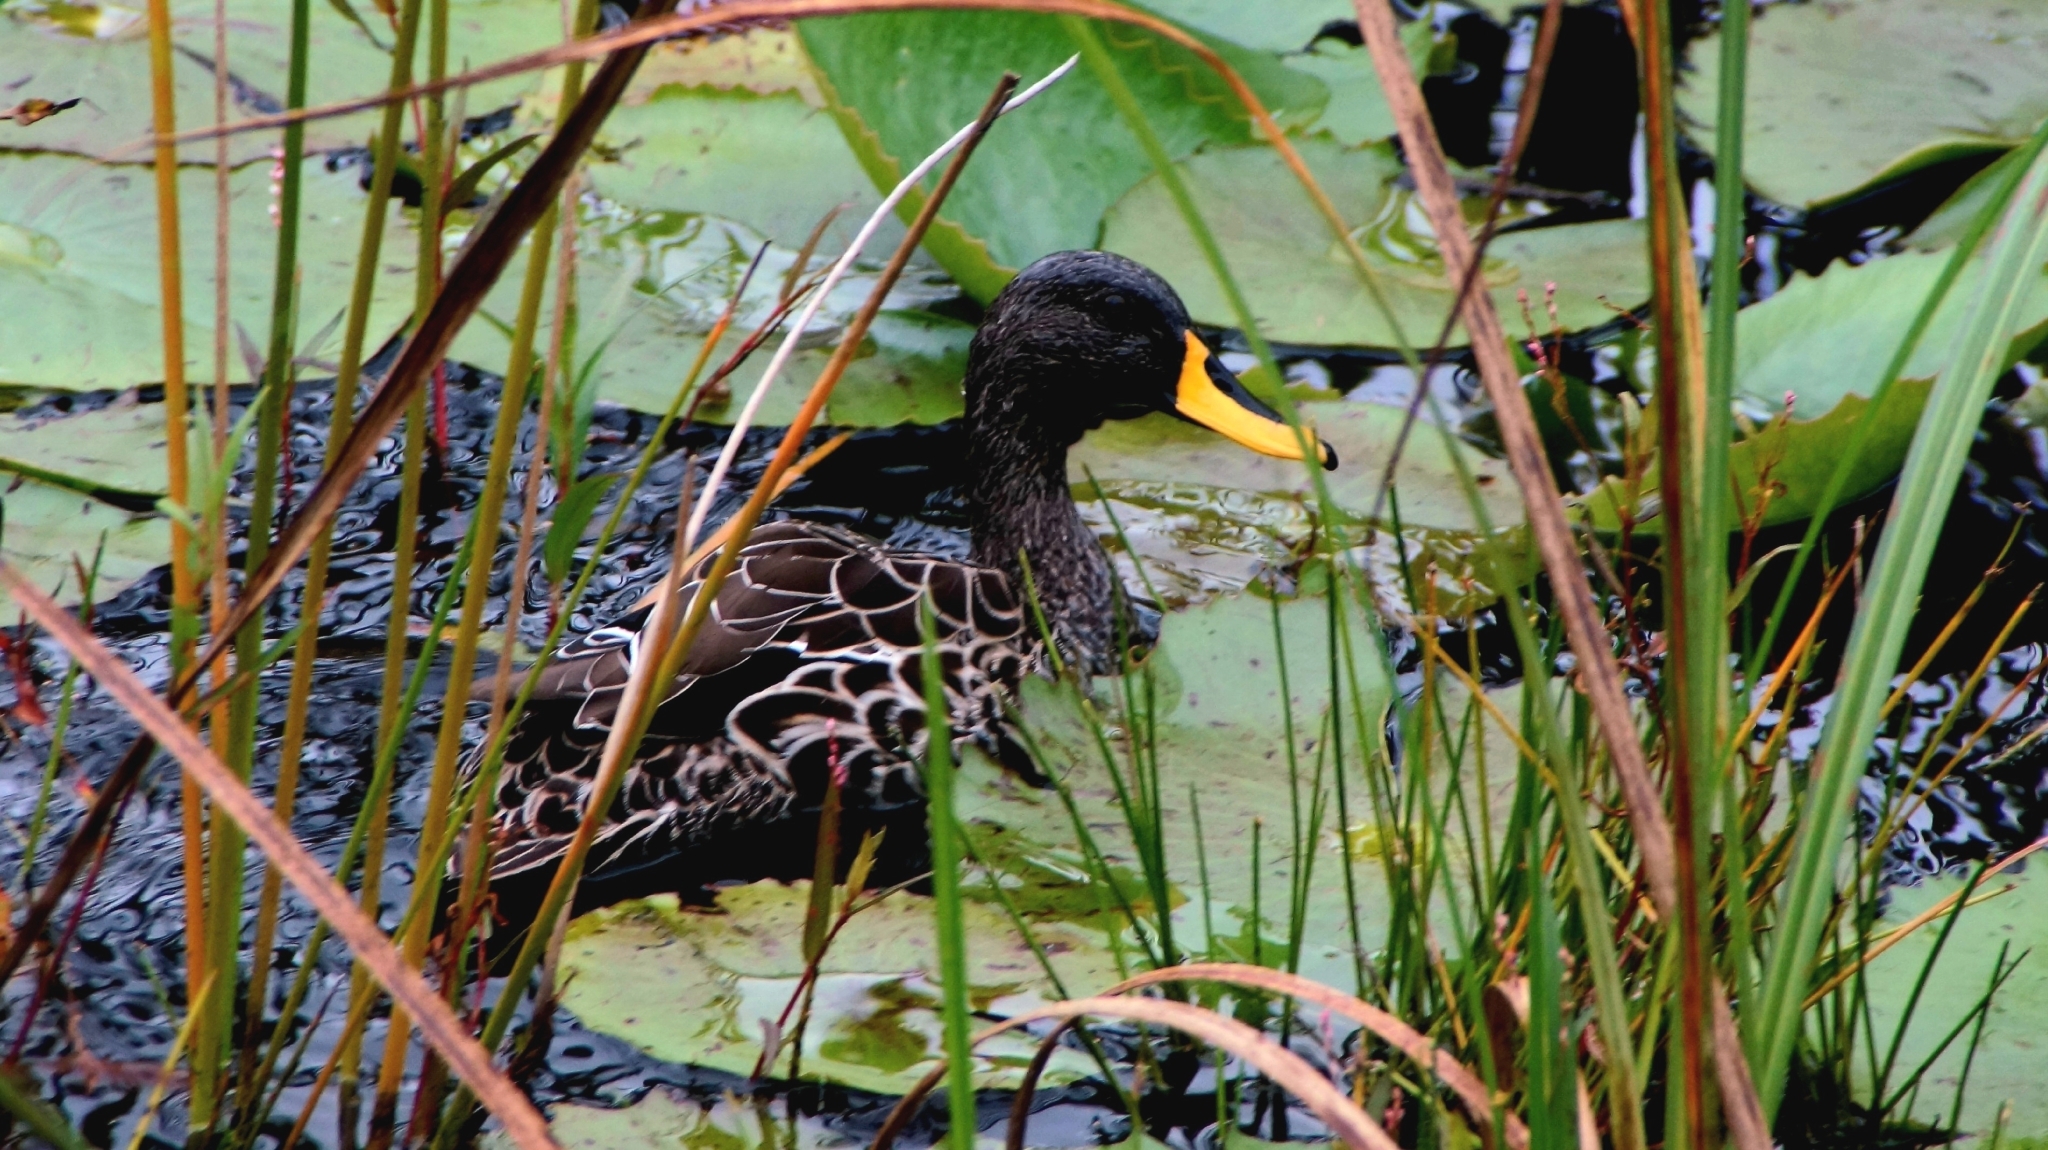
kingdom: Animalia
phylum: Chordata
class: Aves
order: Anseriformes
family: Anatidae
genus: Anas
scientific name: Anas undulata
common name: Yellow-billed duck
